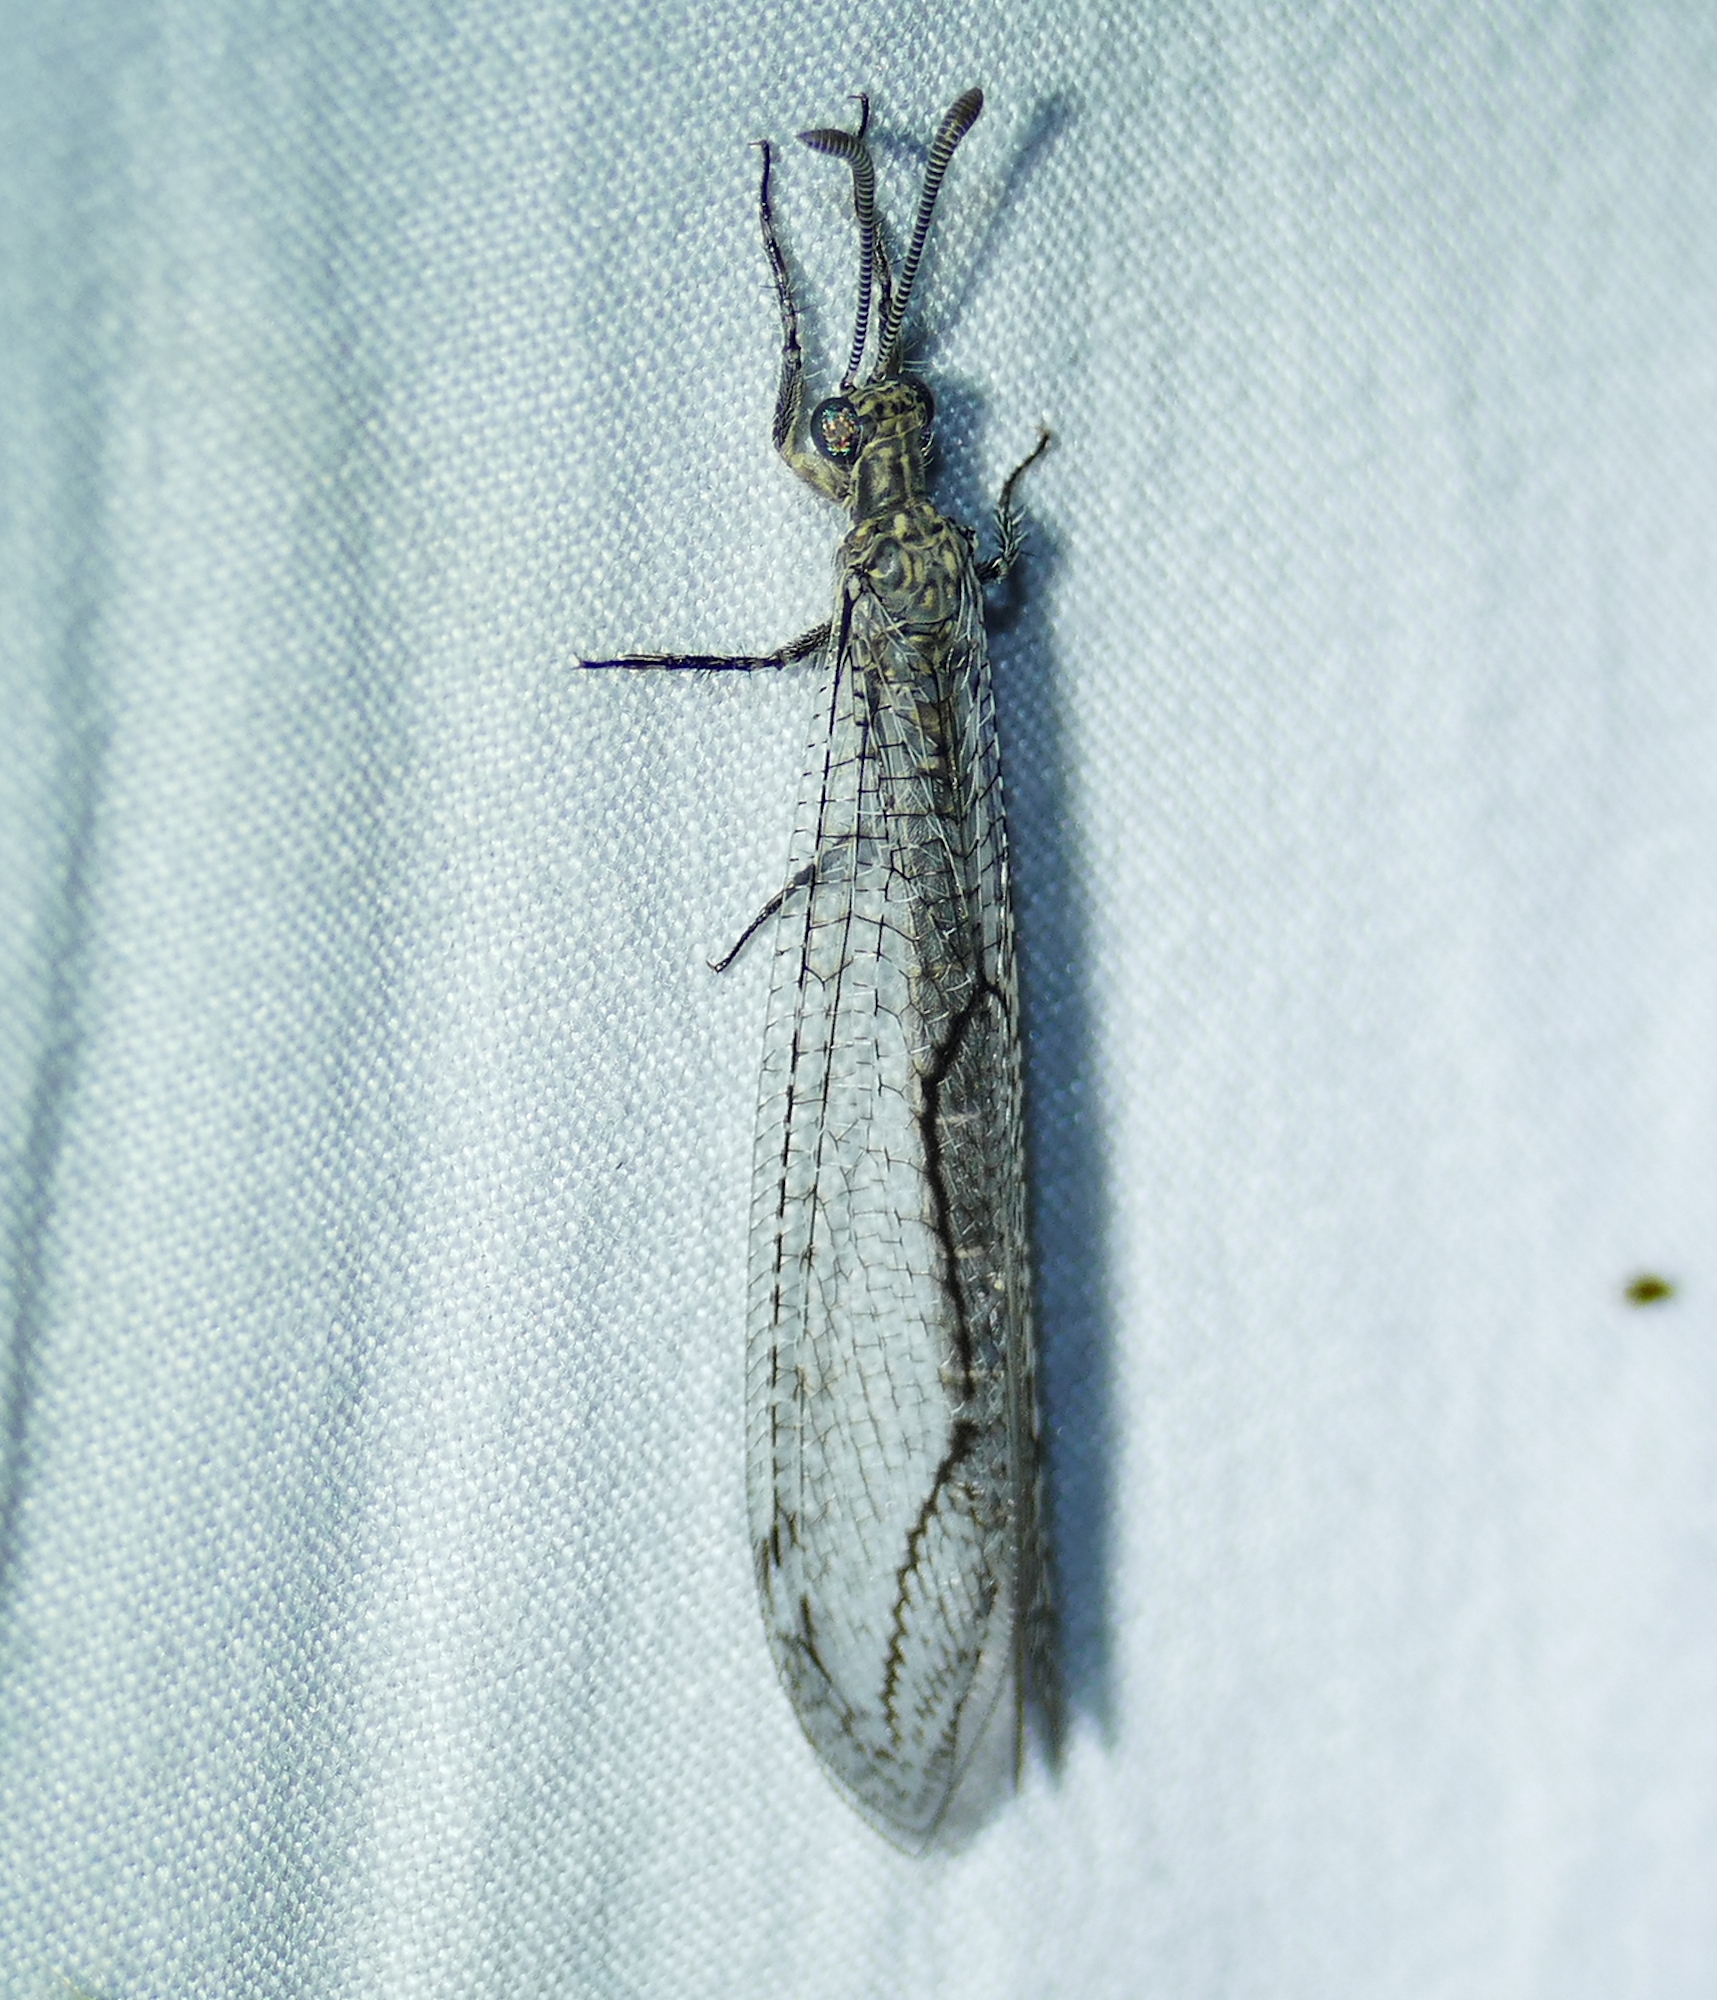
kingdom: Animalia
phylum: Arthropoda
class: Insecta
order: Neuroptera
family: Myrmeleontidae
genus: Purenleon
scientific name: Purenleon connexus
